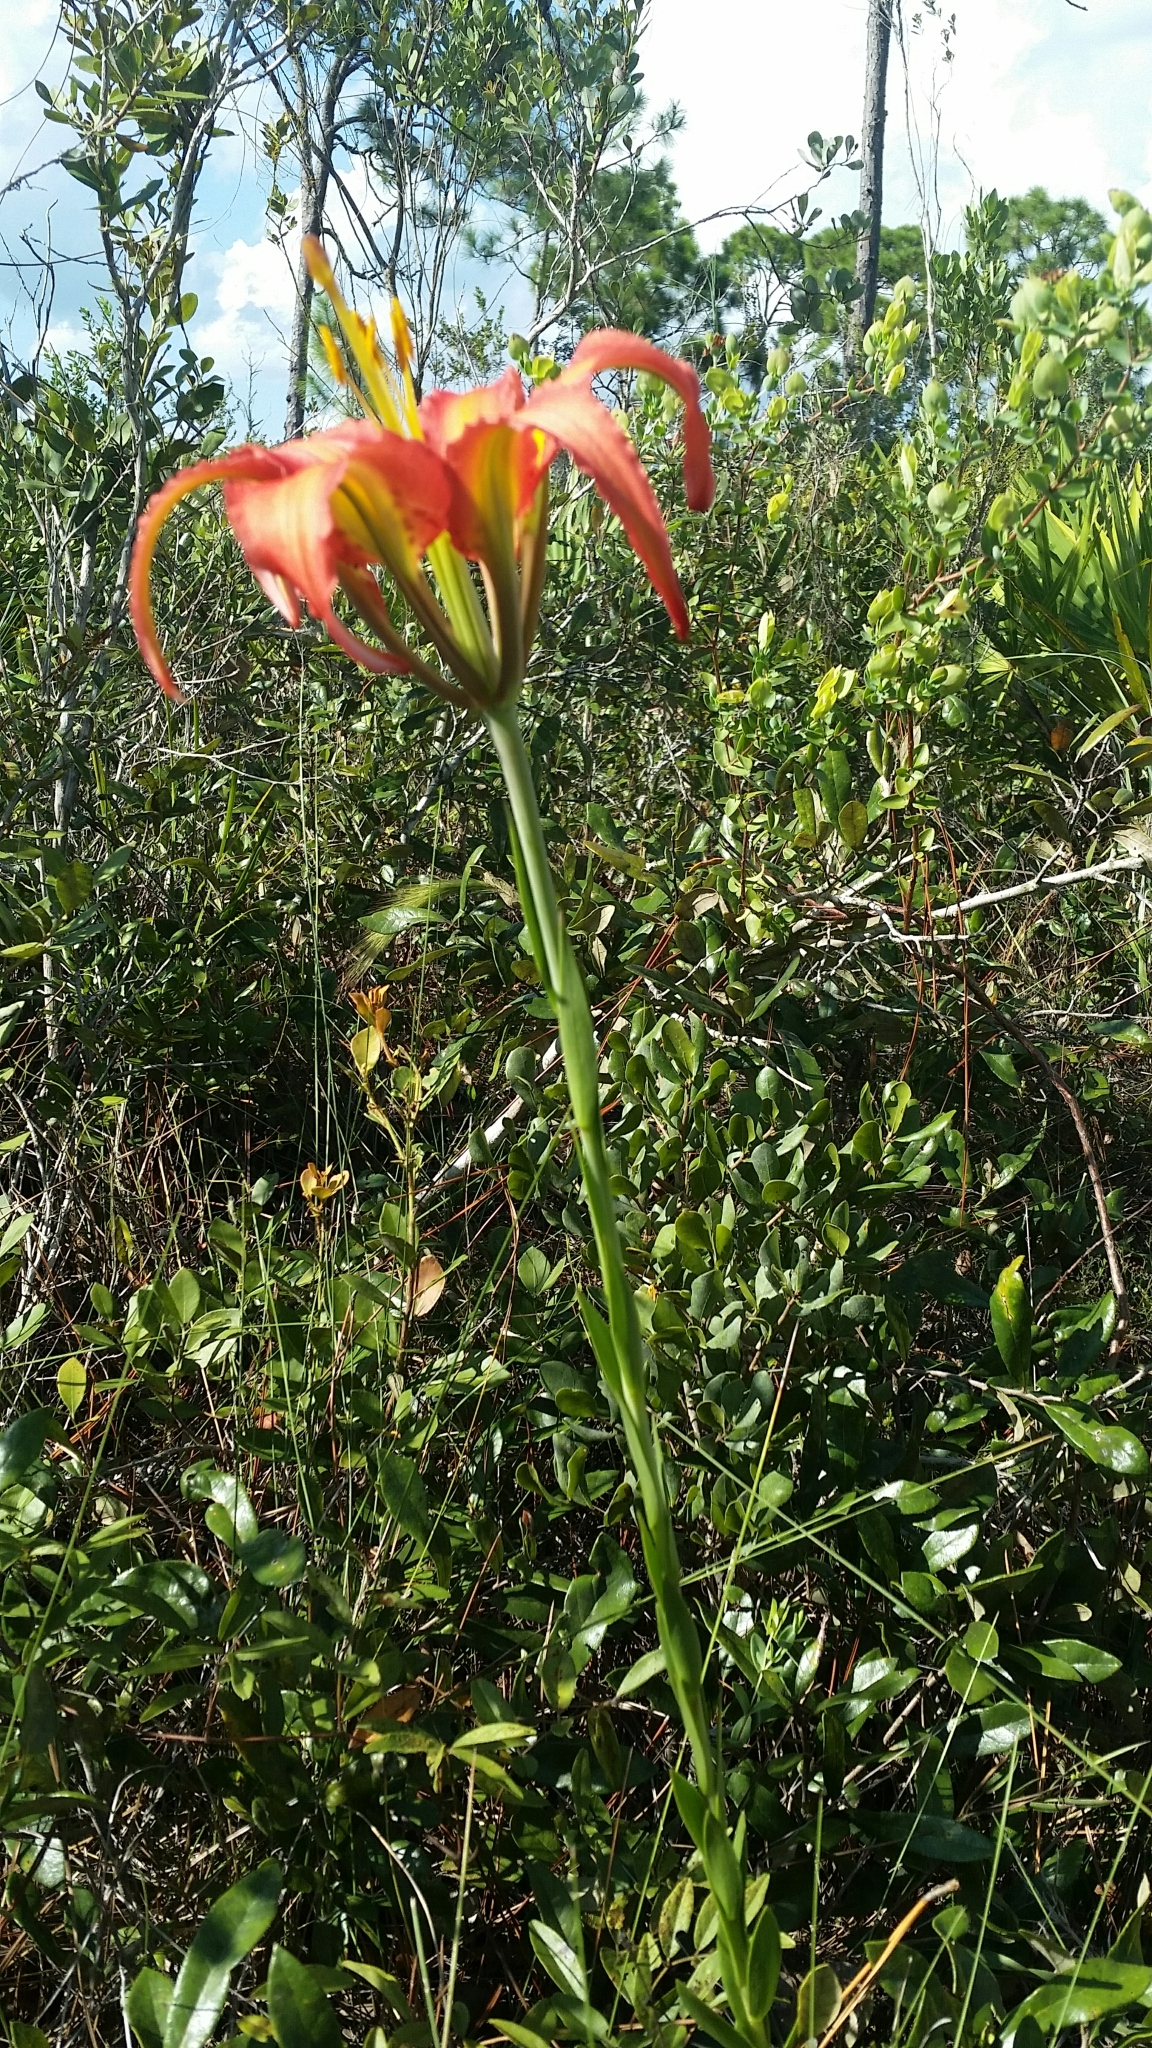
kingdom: Plantae
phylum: Tracheophyta
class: Liliopsida
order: Liliales
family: Liliaceae
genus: Lilium
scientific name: Lilium catesbaei
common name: Catesby's lily
